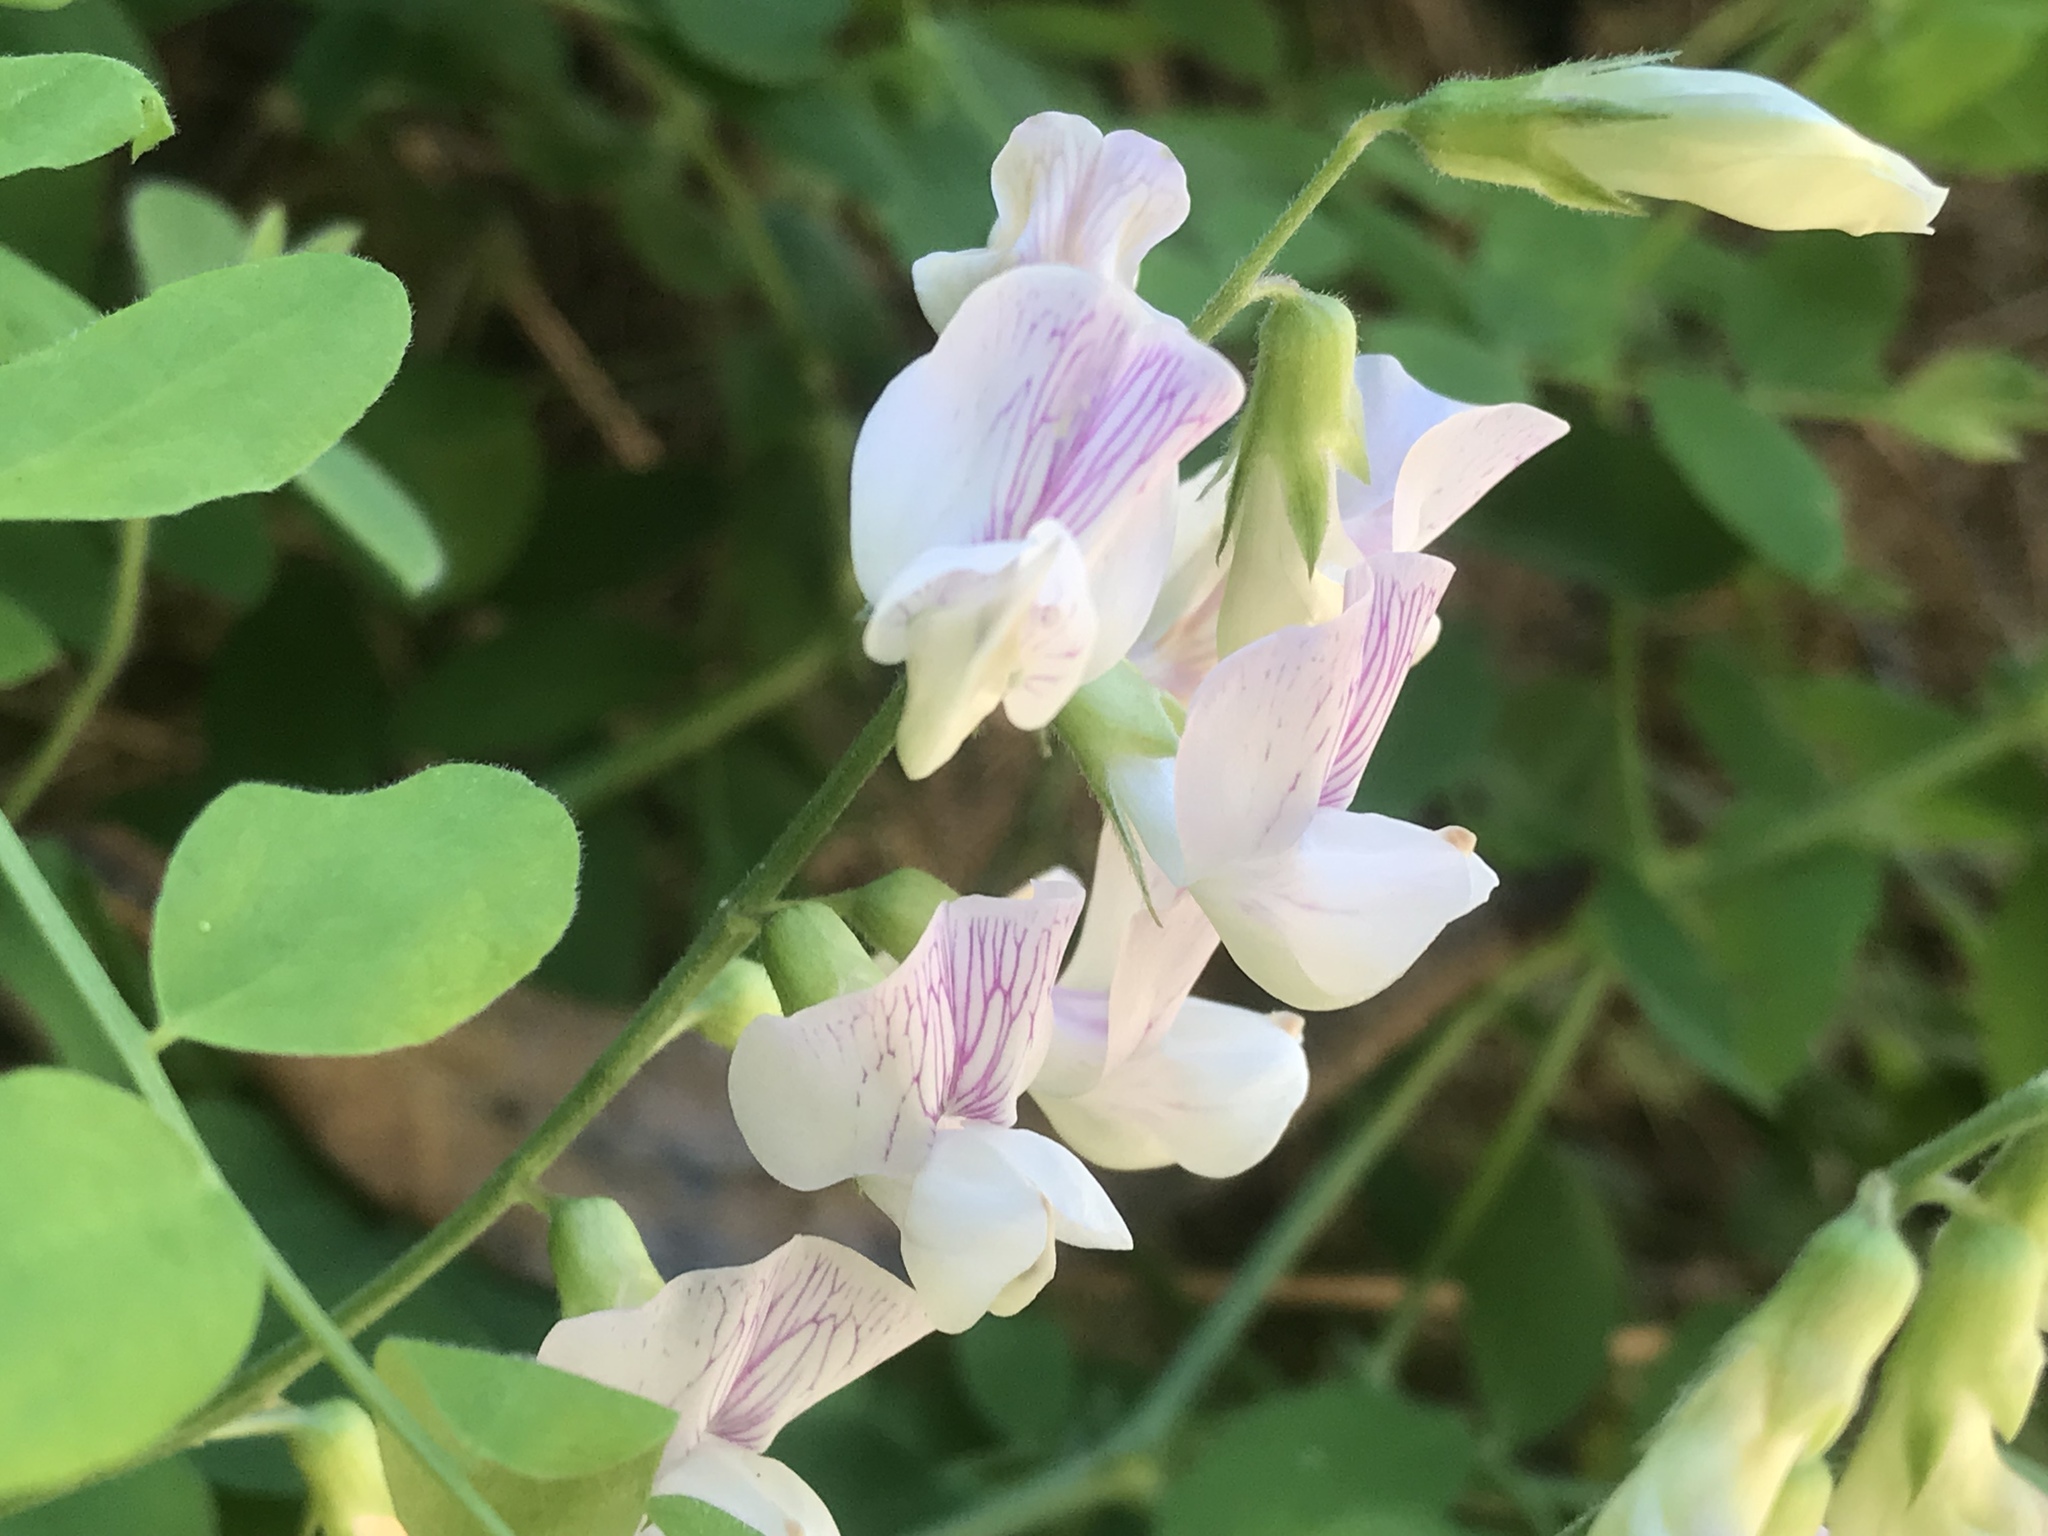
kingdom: Plantae
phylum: Tracheophyta
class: Magnoliopsida
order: Fabales
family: Fabaceae
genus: Lathyrus
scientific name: Lathyrus vestitus
